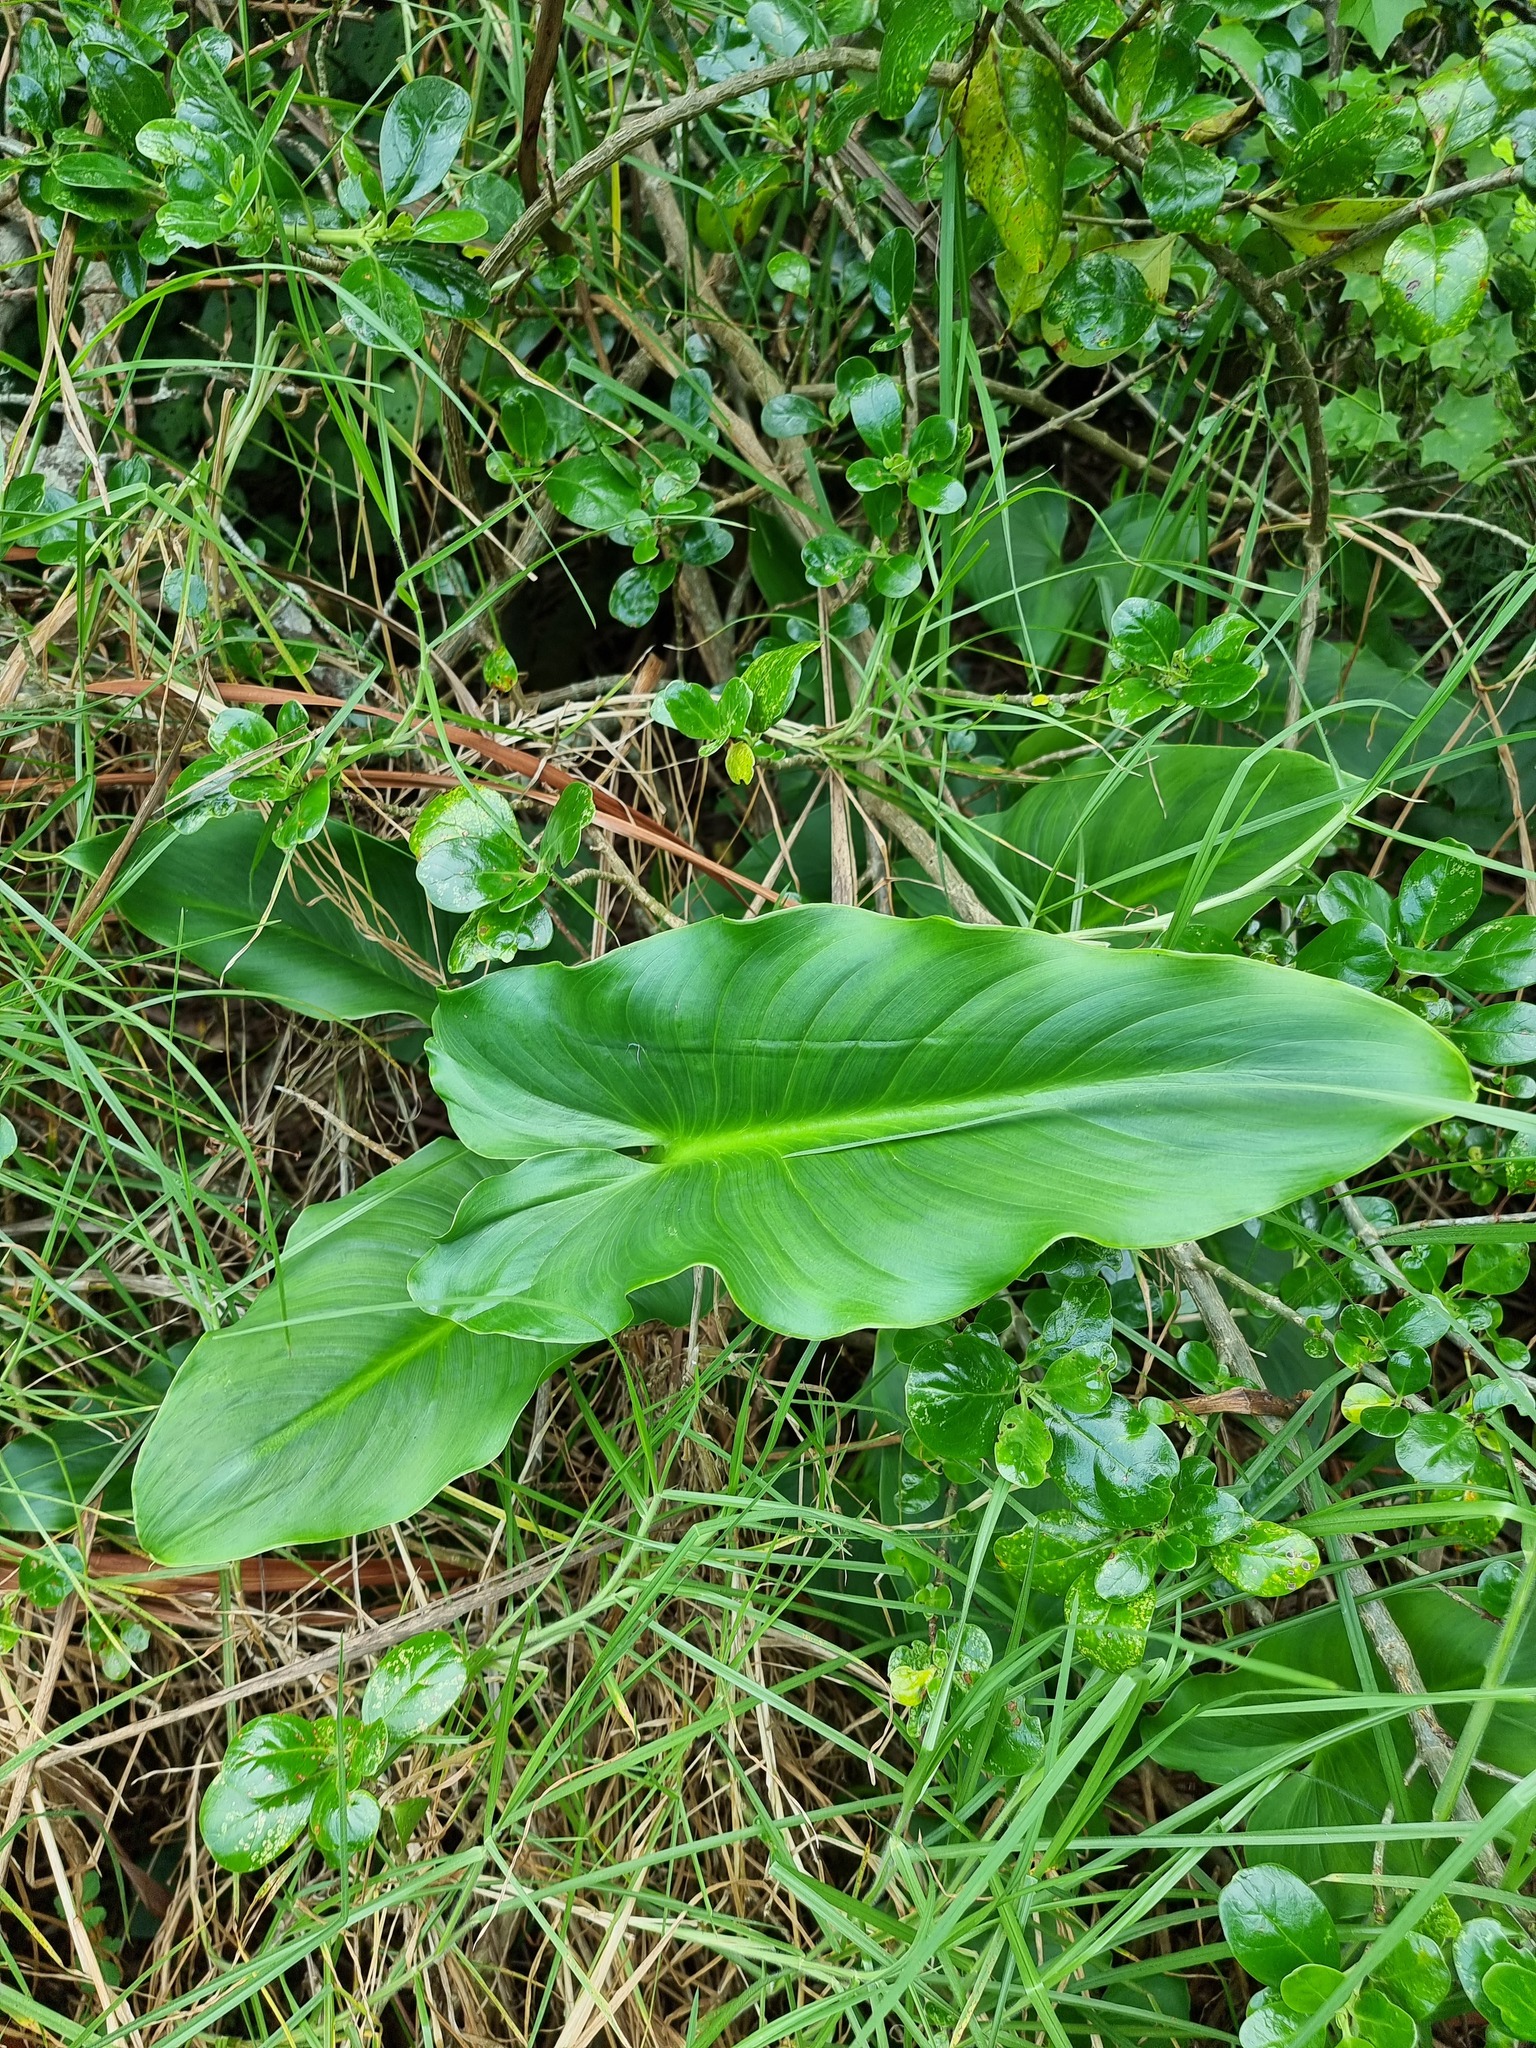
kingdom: Plantae
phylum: Tracheophyta
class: Liliopsida
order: Alismatales
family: Araceae
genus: Zantedeschia
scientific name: Zantedeschia aethiopica
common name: Altar-lily
